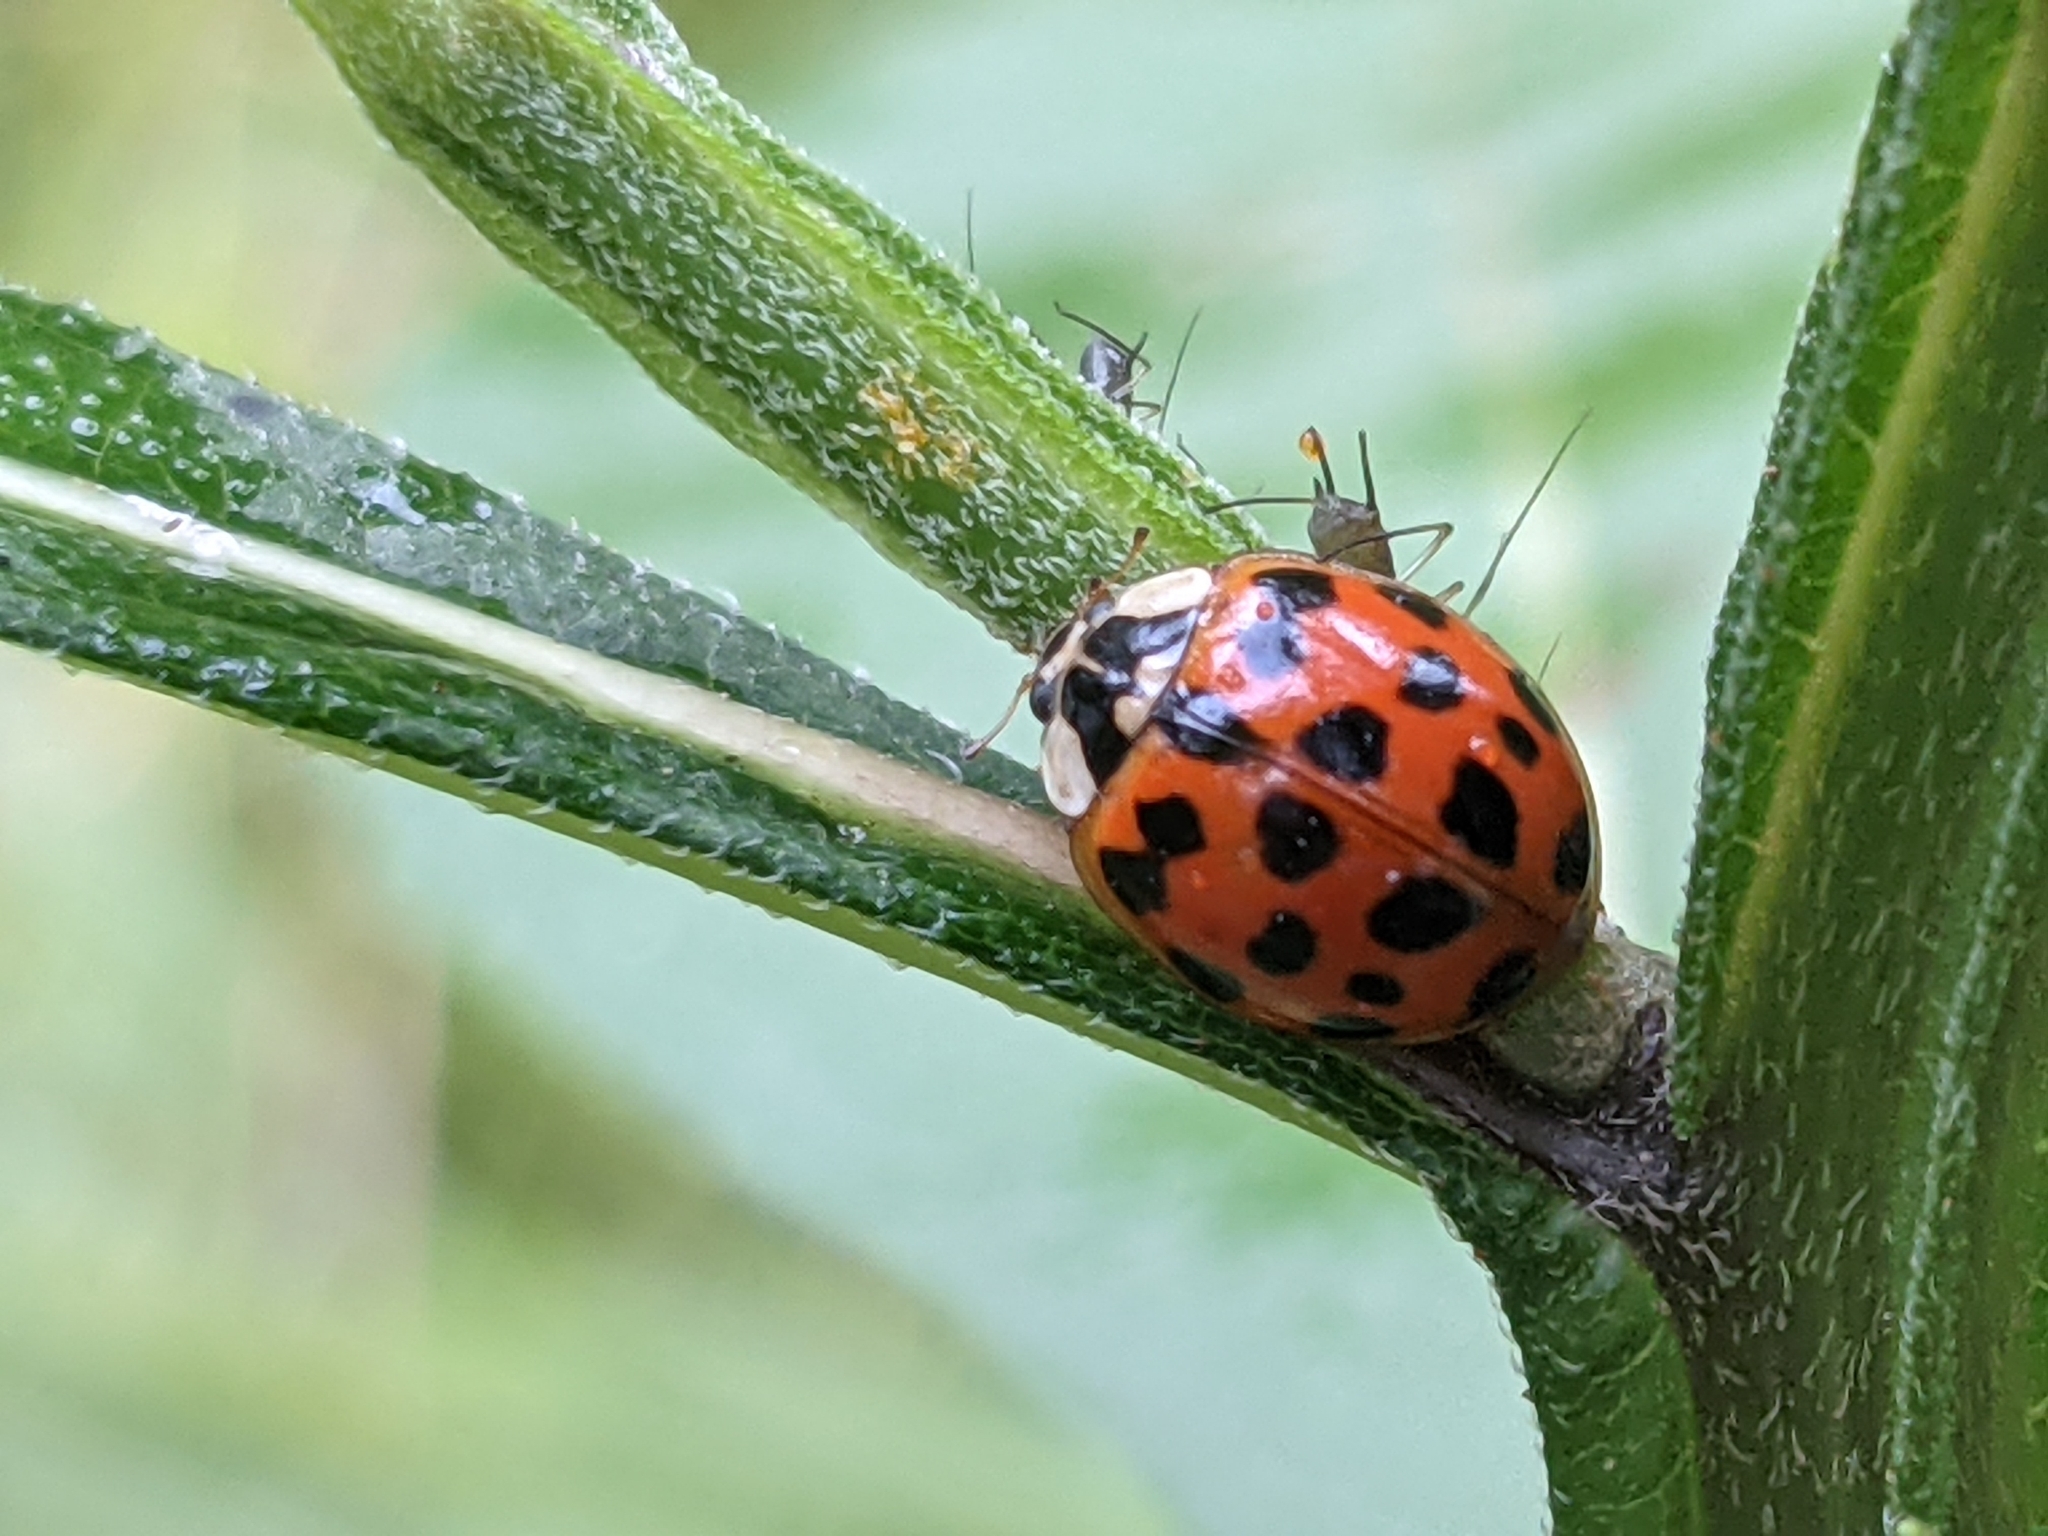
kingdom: Animalia
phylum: Arthropoda
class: Insecta
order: Coleoptera
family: Coccinellidae
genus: Harmonia
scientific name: Harmonia axyridis
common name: Harlequin ladybird
